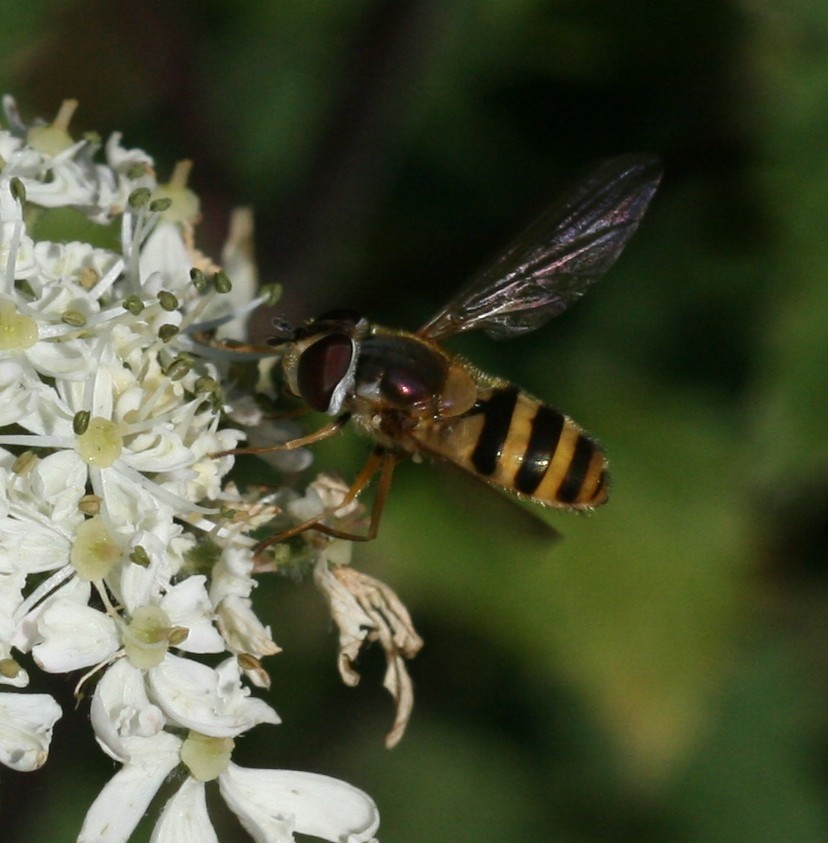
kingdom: Animalia
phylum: Arthropoda
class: Insecta
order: Diptera
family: Syrphidae
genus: Epistrophe
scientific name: Epistrophe grossulariae
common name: Black-horned smoothtail
